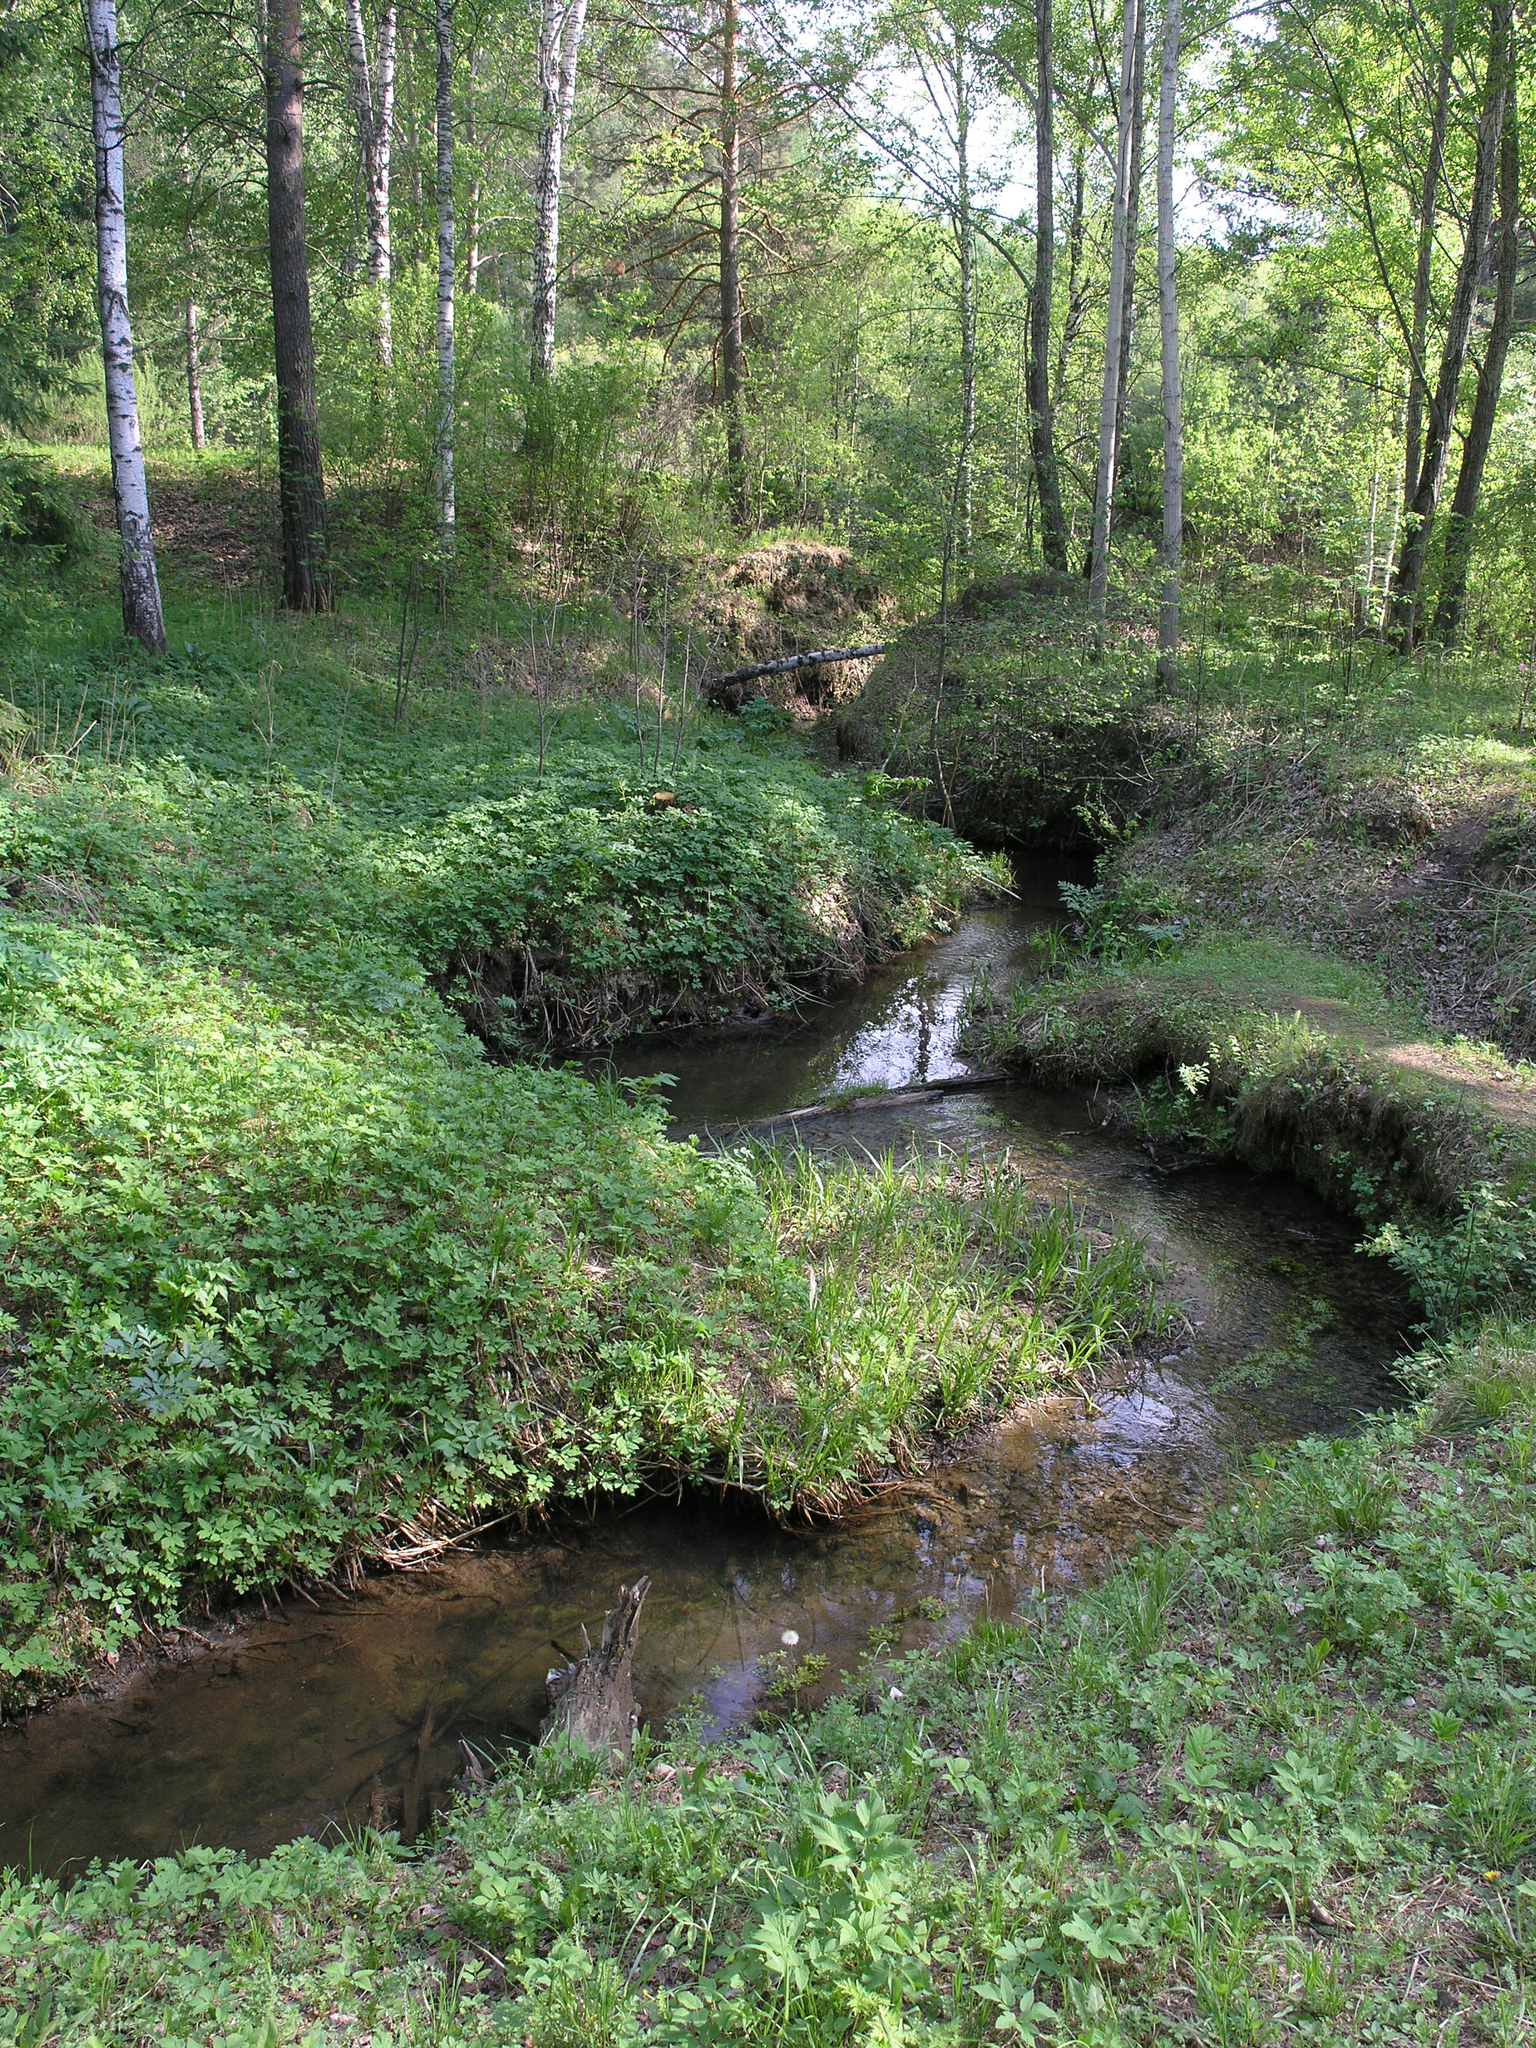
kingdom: Plantae
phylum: Tracheophyta
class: Magnoliopsida
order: Apiales
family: Apiaceae
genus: Aegopodium
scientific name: Aegopodium podagraria
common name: Ground-elder
